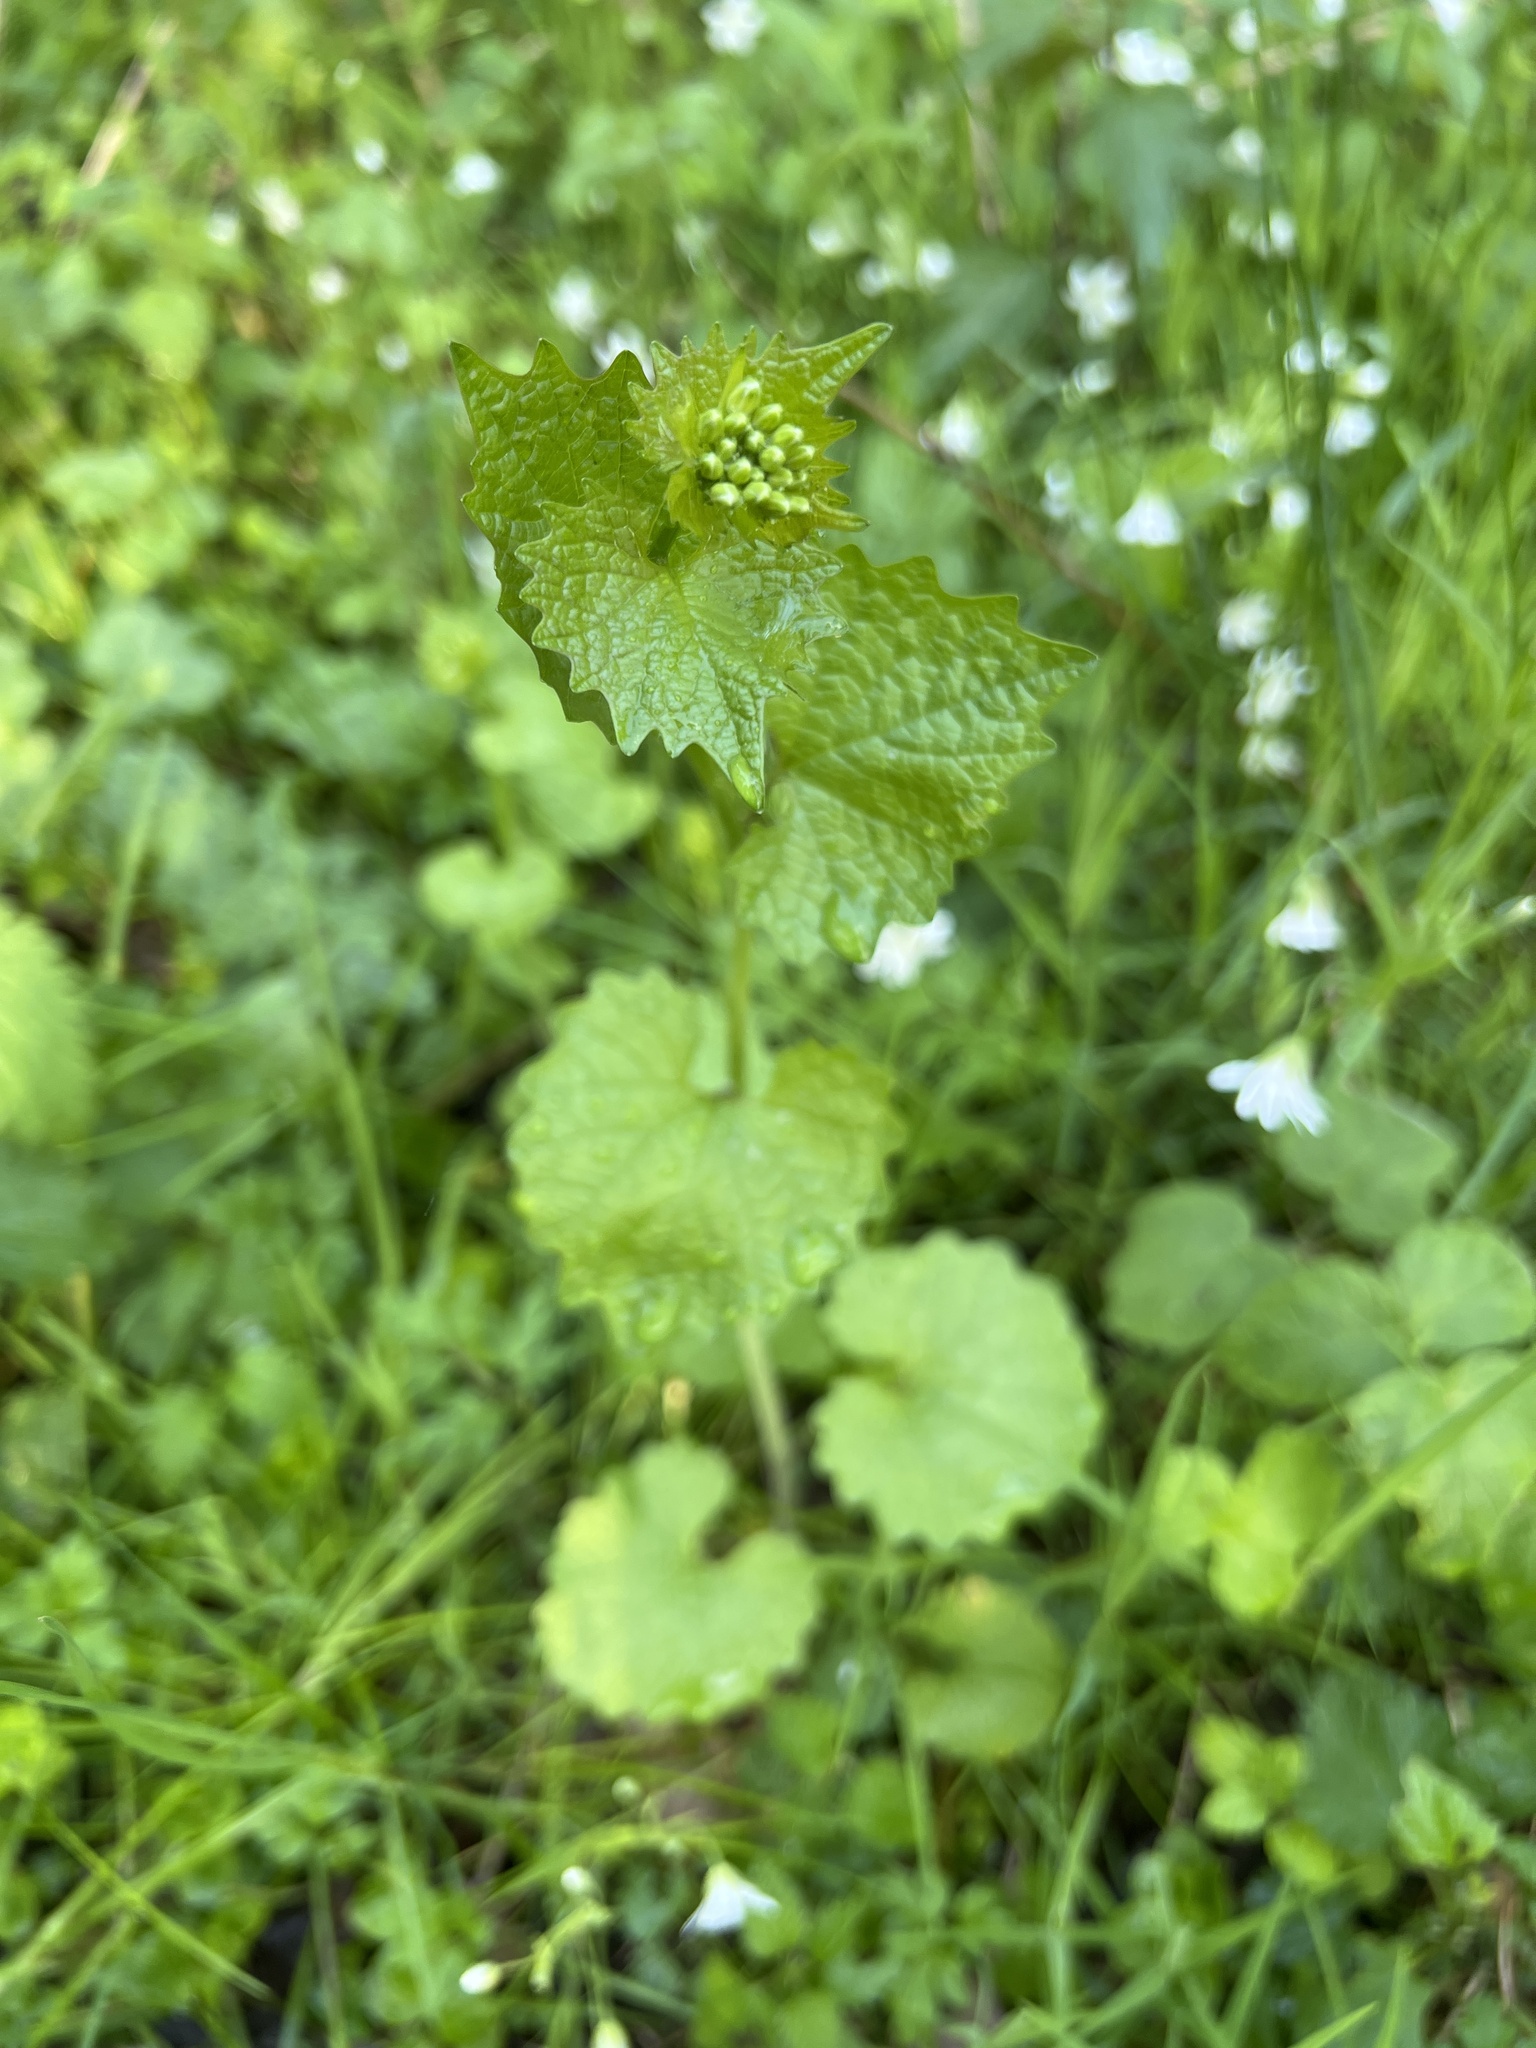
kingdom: Plantae
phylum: Tracheophyta
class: Magnoliopsida
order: Brassicales
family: Brassicaceae
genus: Alliaria
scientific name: Alliaria petiolata
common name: Garlic mustard
